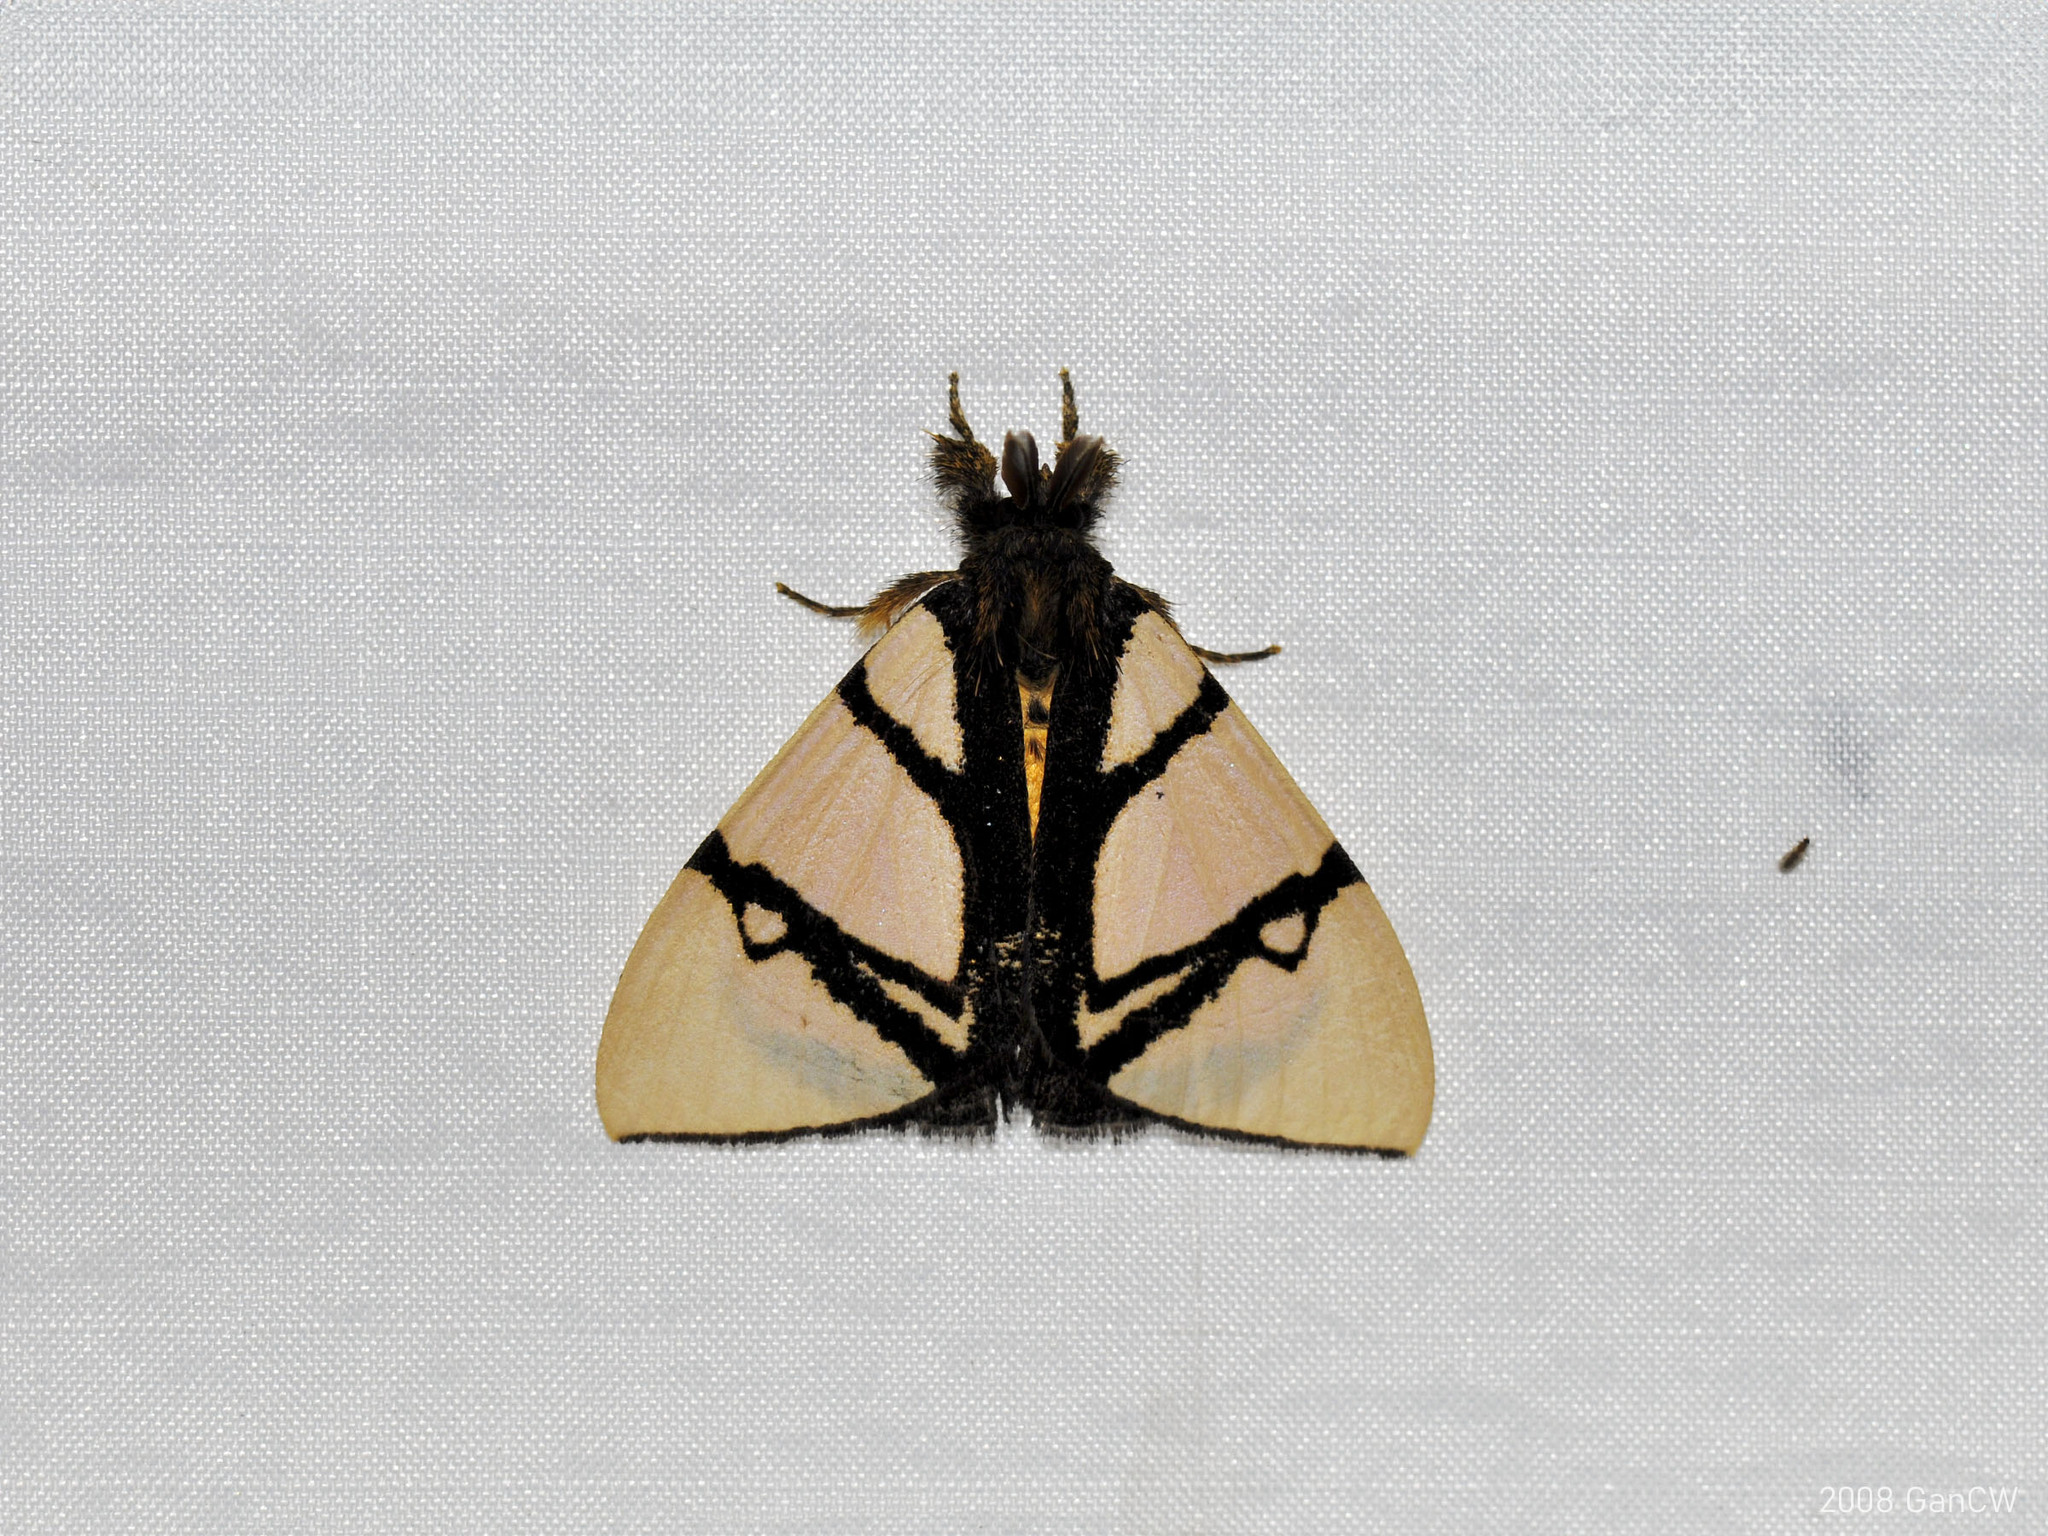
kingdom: Animalia
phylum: Arthropoda
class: Insecta
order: Lepidoptera
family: Erebidae
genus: Numenes
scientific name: Numenes contrahens
